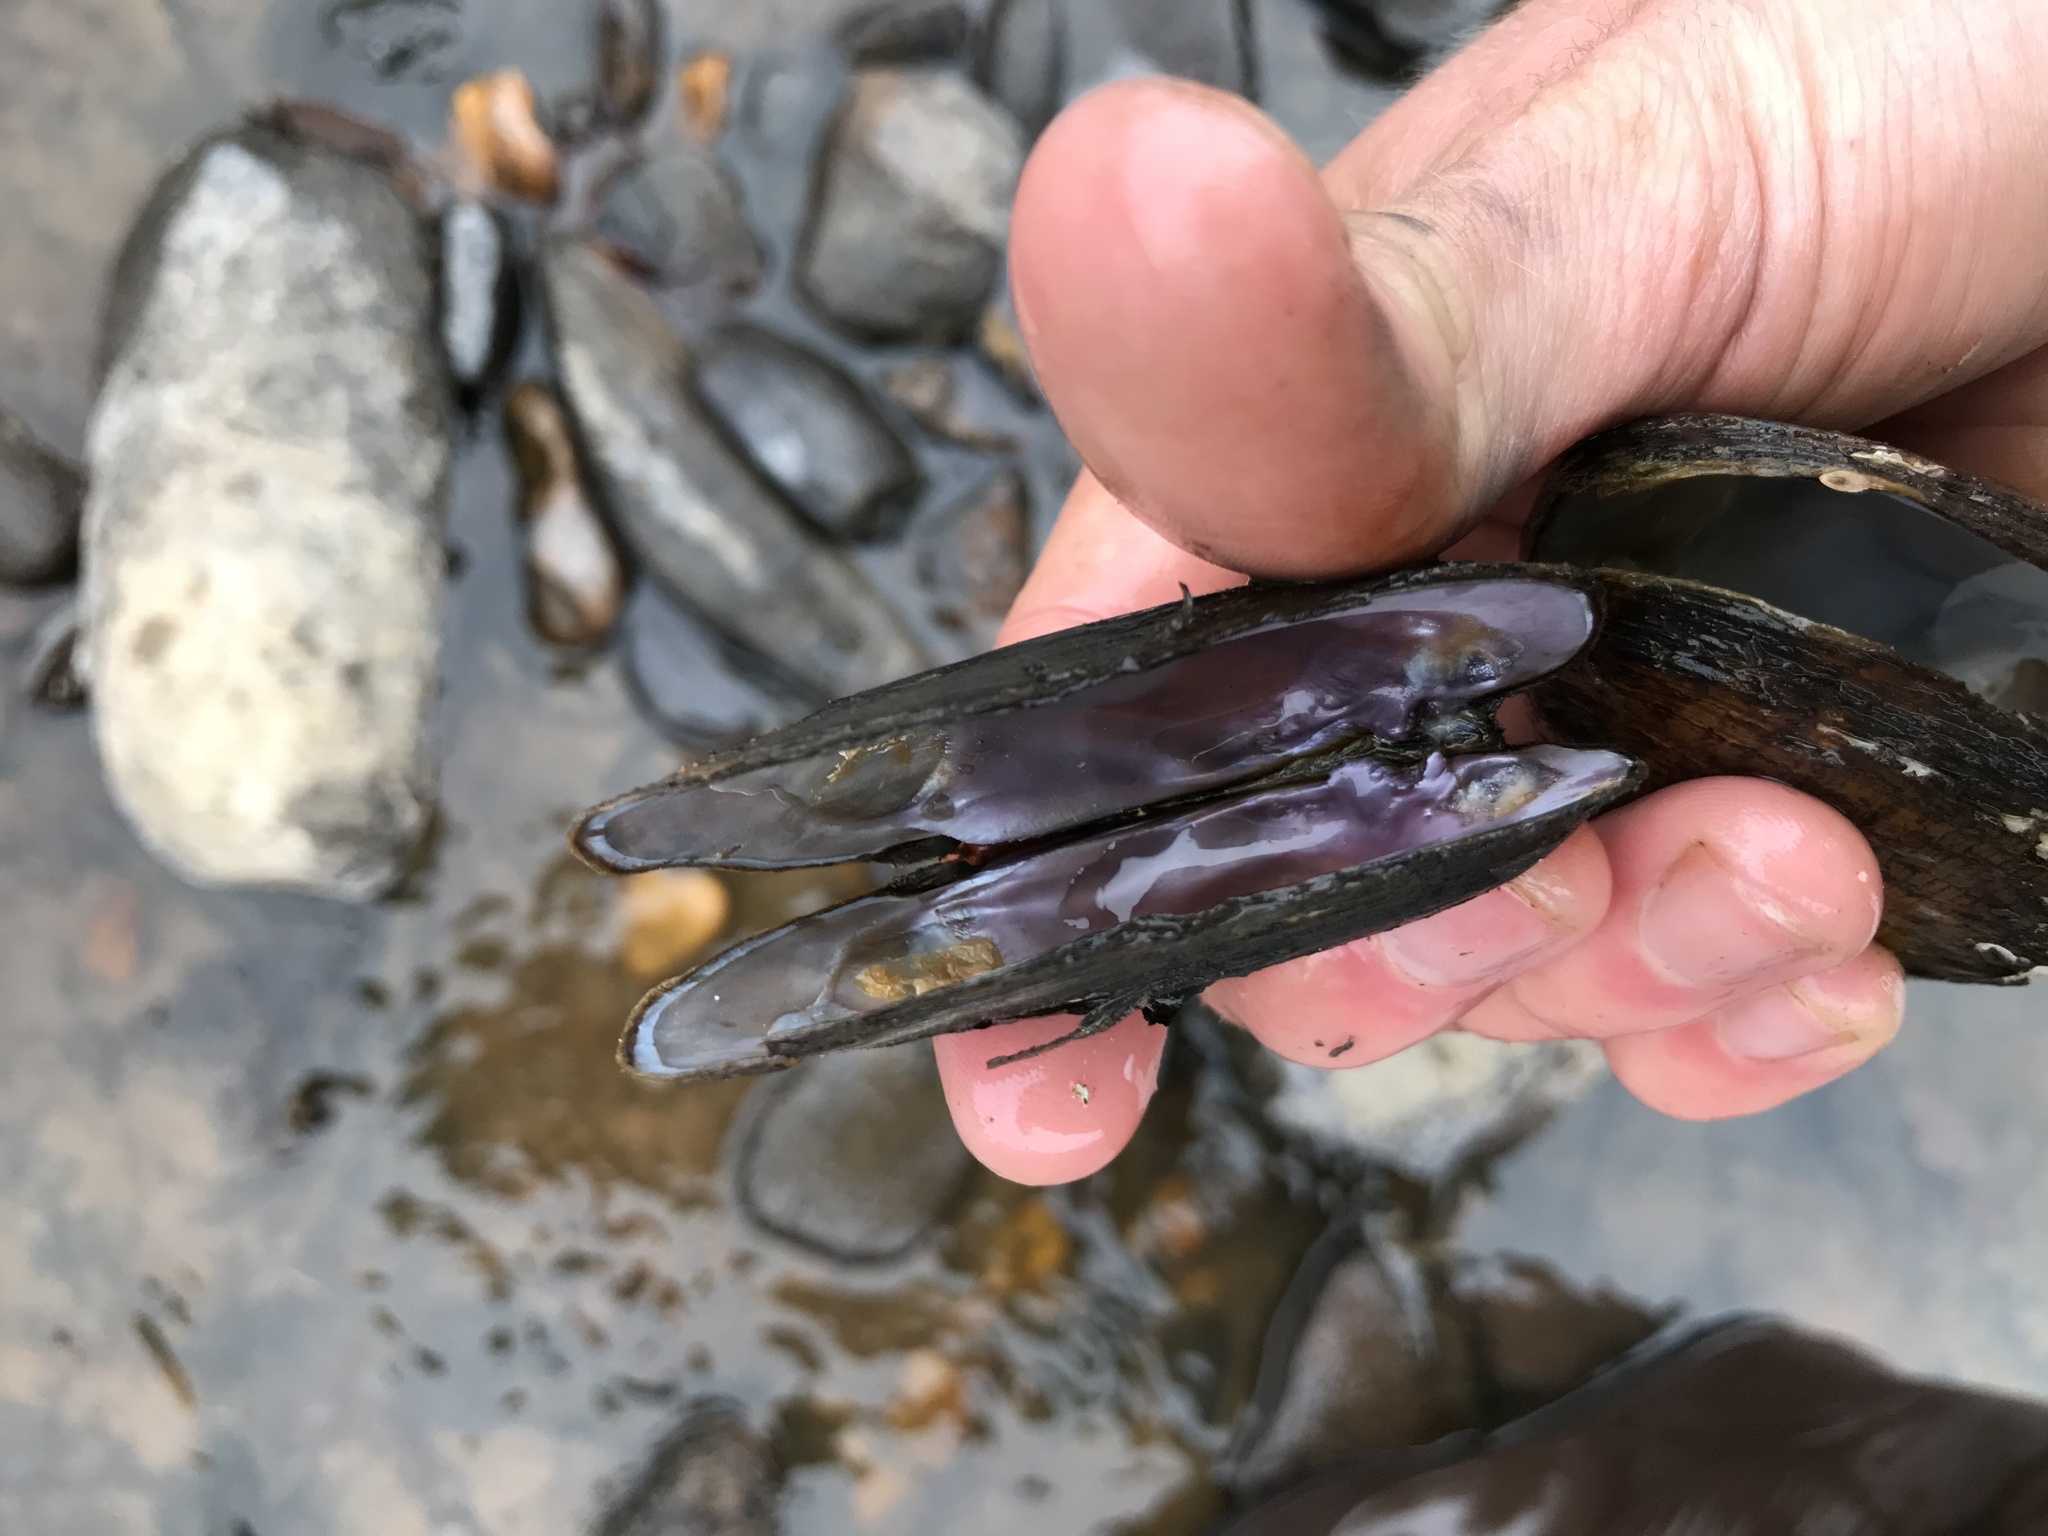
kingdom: Animalia
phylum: Mollusca
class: Bivalvia
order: Unionida
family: Unionidae
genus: Eurynia
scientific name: Eurynia dilatata
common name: Spike
